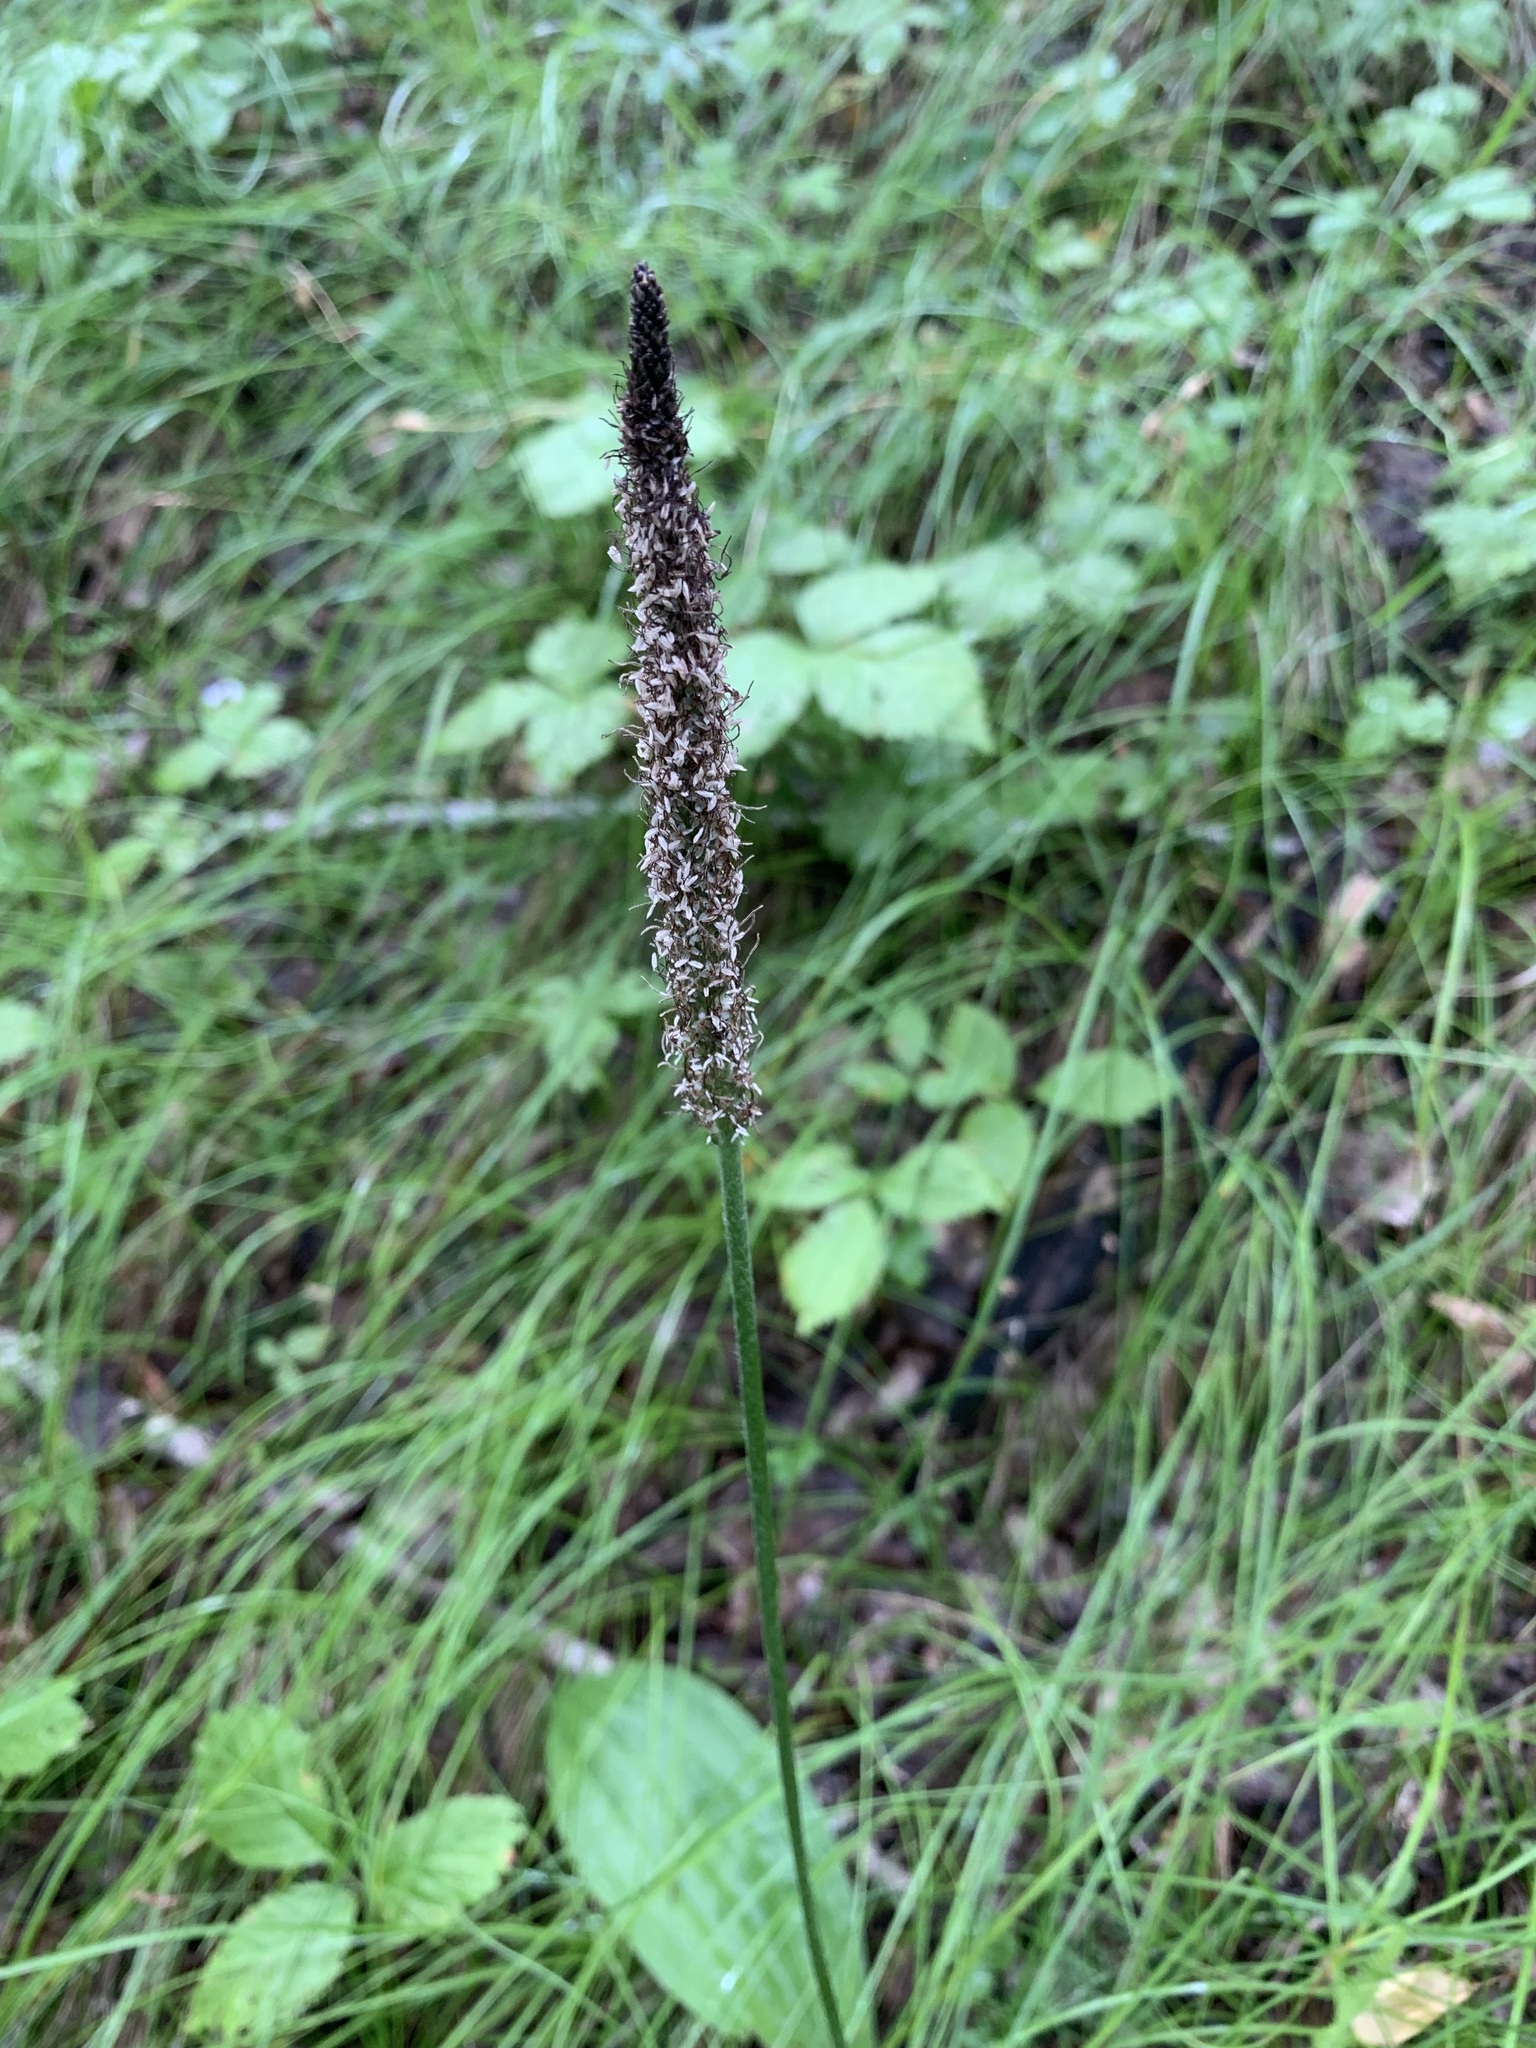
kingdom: Plantae
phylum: Tracheophyta
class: Magnoliopsida
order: Lamiales
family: Plantaginaceae
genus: Plantago
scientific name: Plantago urvillei
